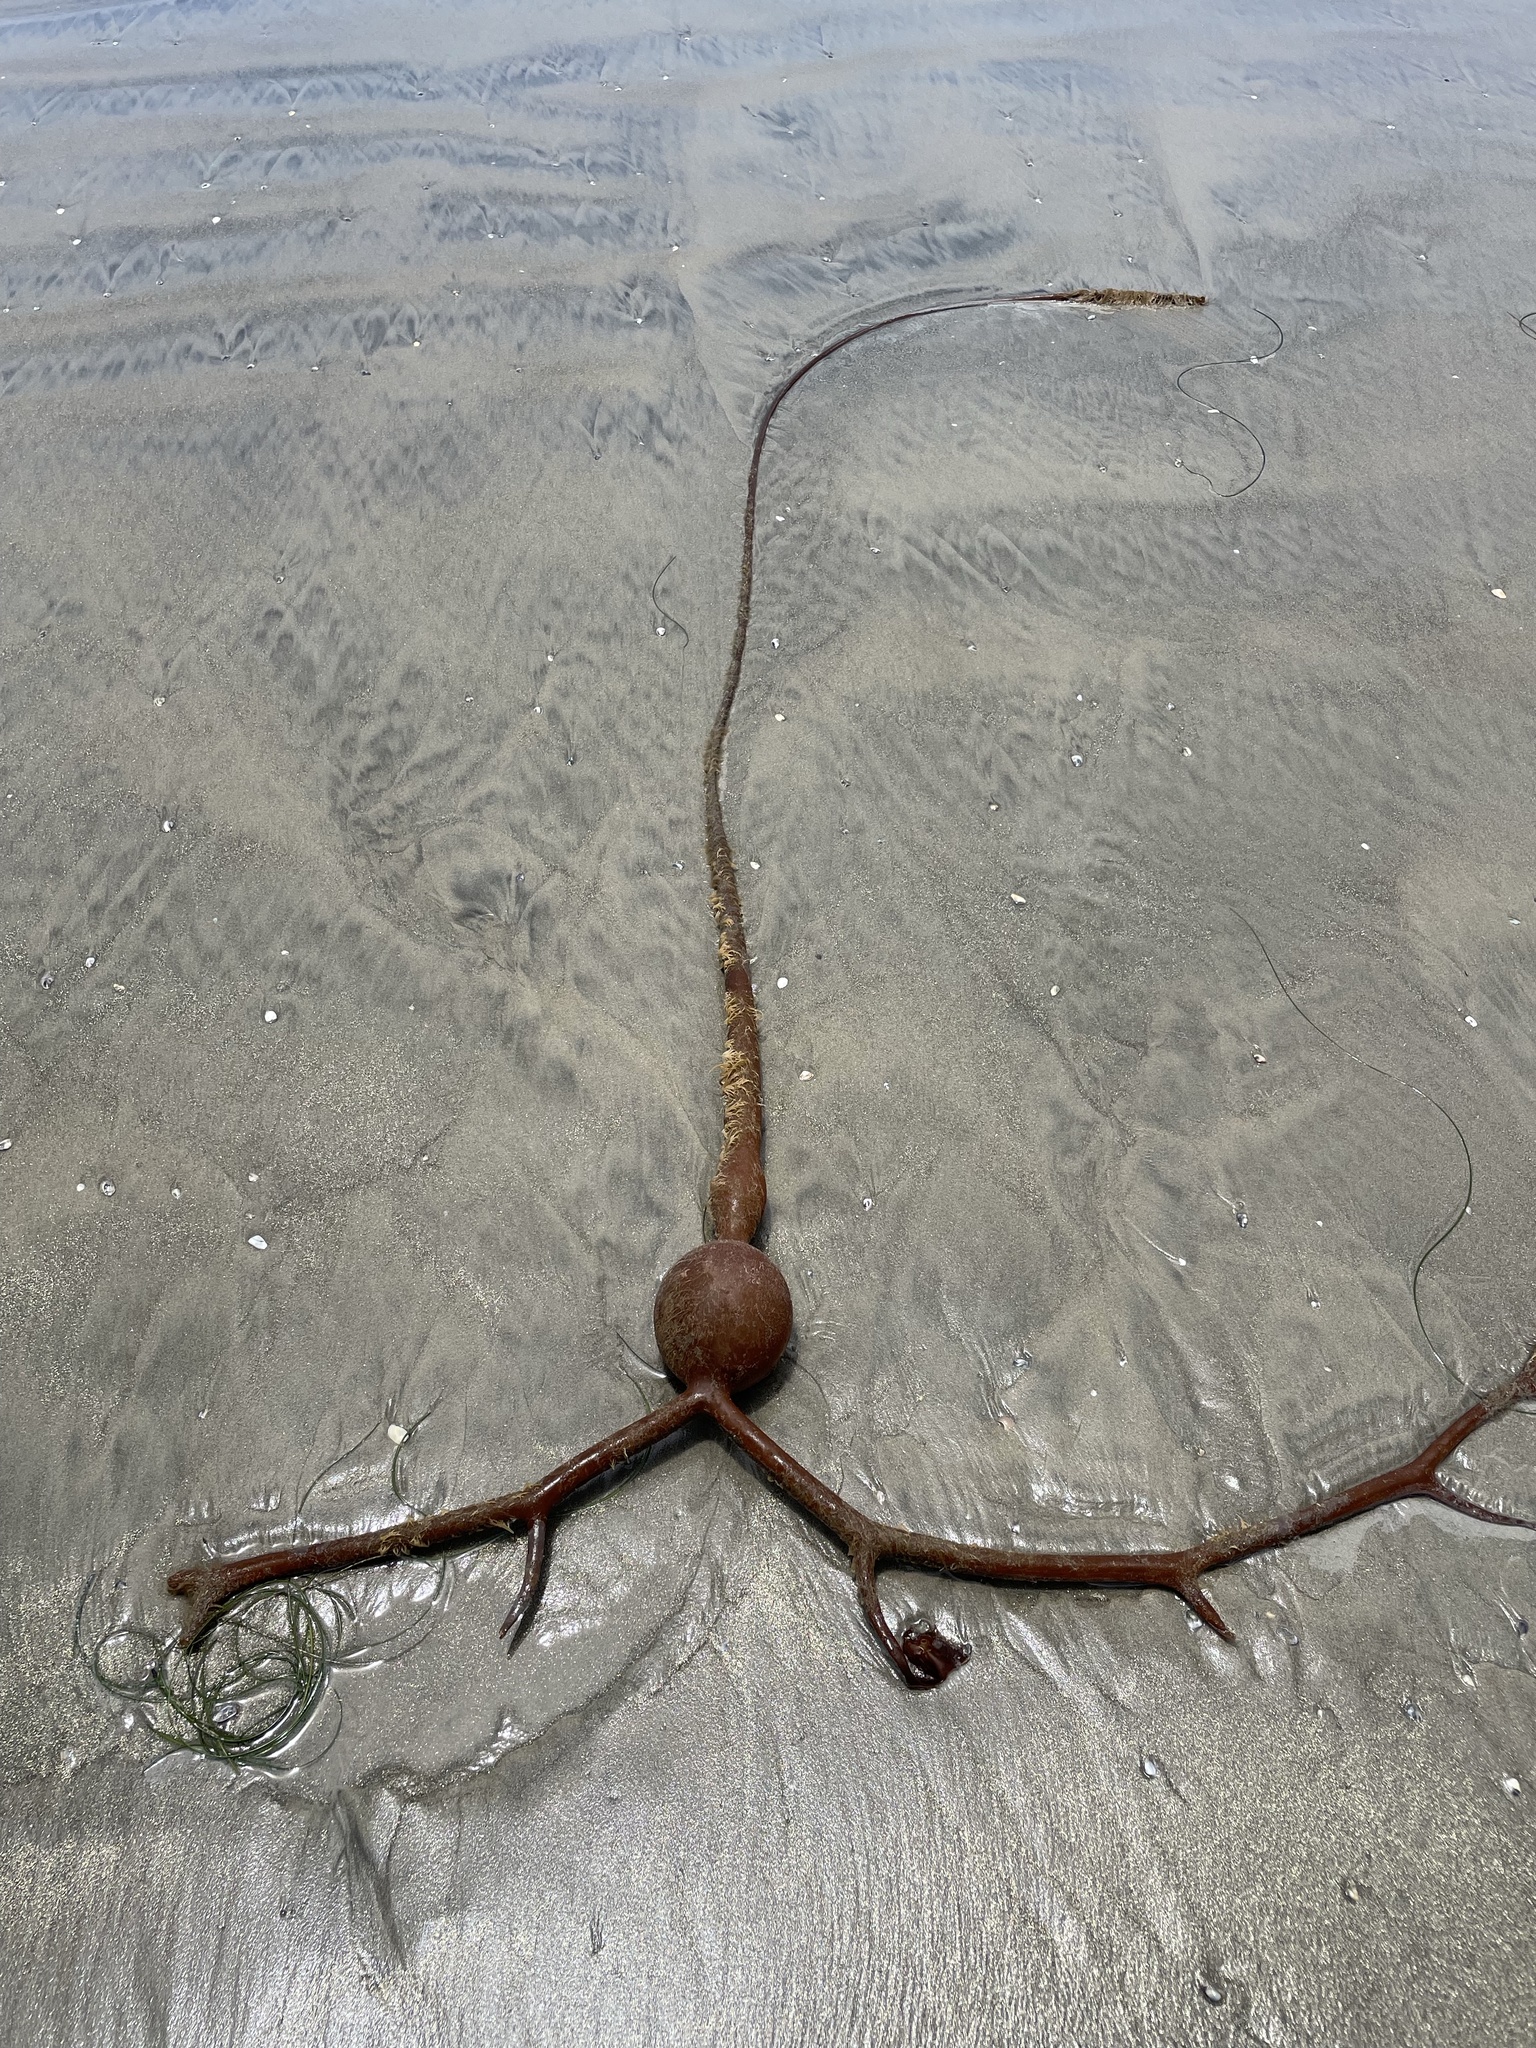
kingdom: Chromista
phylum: Ochrophyta
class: Phaeophyceae
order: Laminariales
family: Laminariaceae
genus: Pelagophycus
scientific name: Pelagophycus porra
